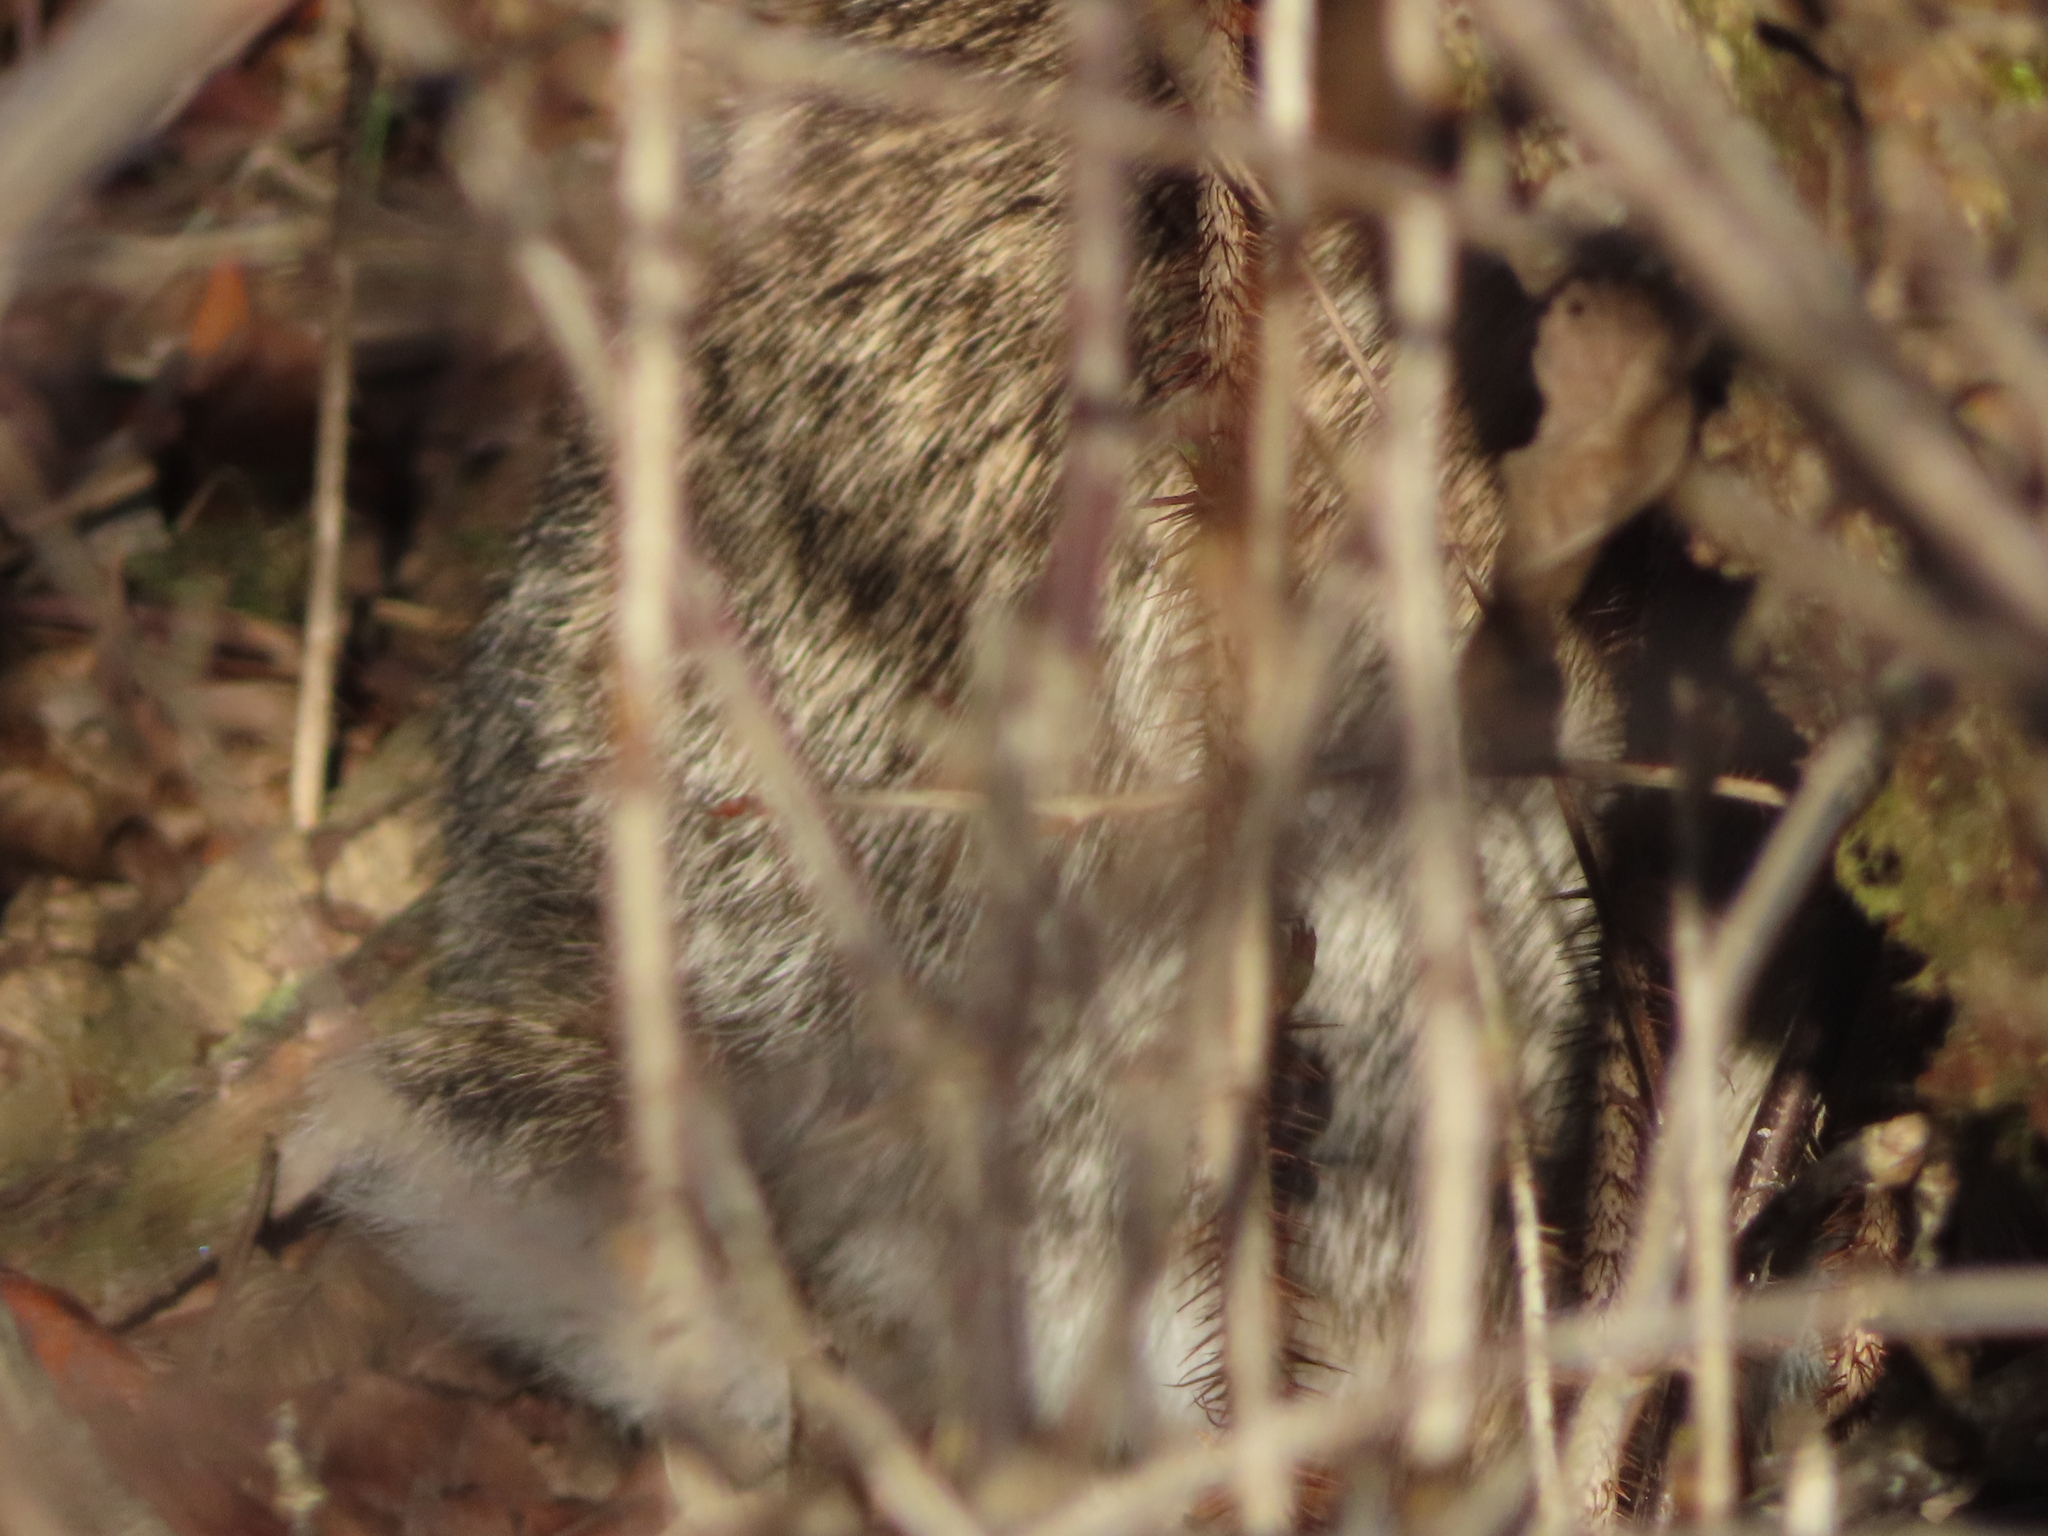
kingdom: Animalia
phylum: Chordata
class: Mammalia
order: Lagomorpha
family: Leporidae
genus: Sylvilagus
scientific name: Sylvilagus floridanus
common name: Eastern cottontail
